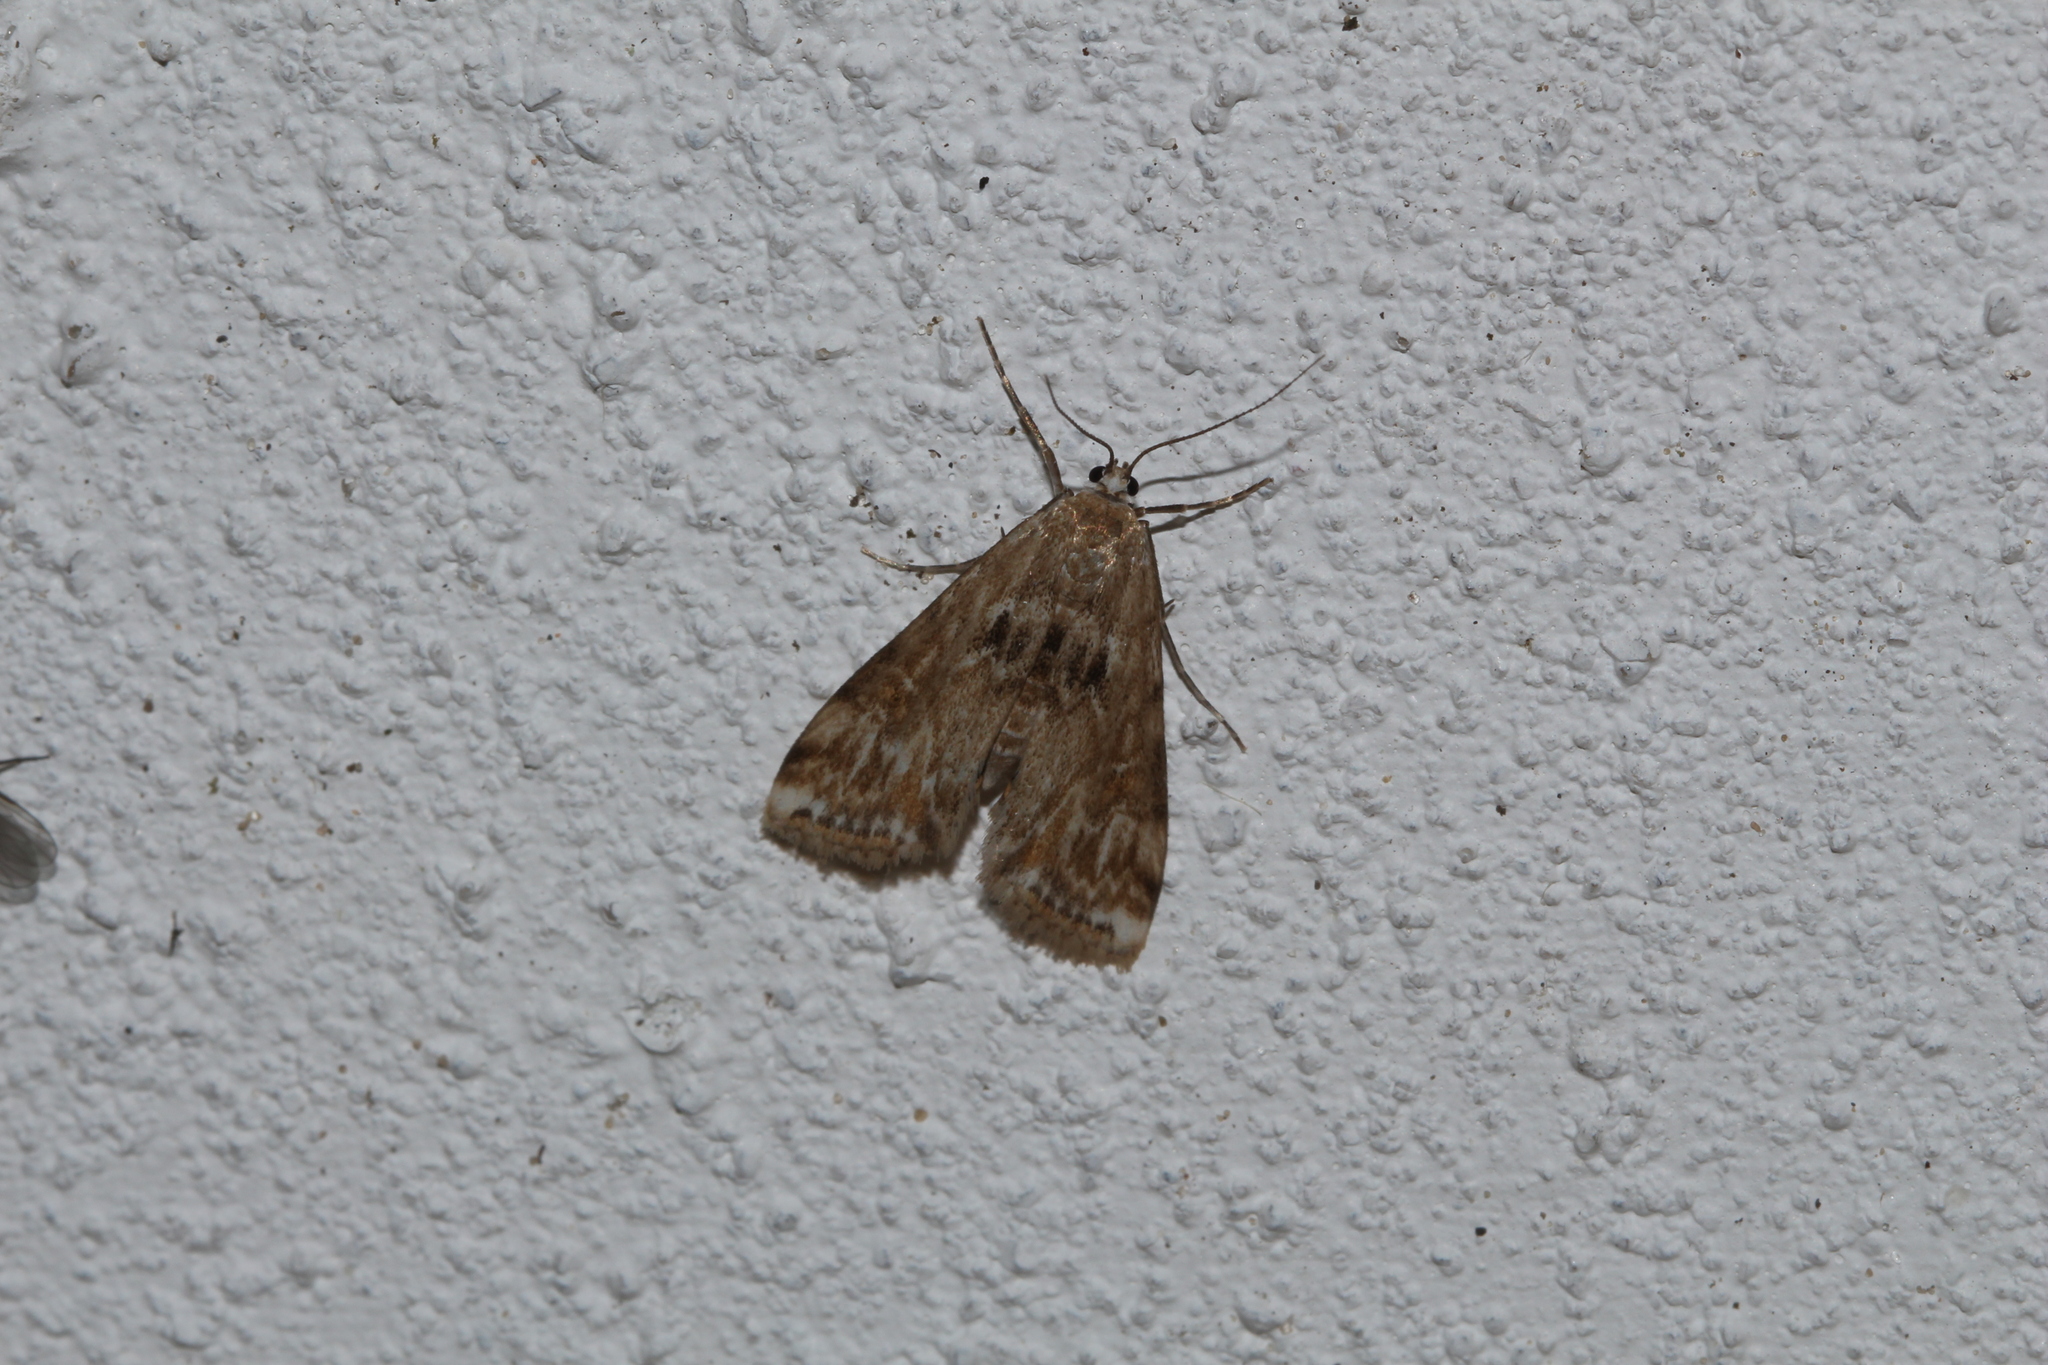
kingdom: Animalia
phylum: Arthropoda
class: Insecta
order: Lepidoptera
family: Crambidae
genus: Cataclysta
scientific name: Cataclysta lemnata
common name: Small china-mark
